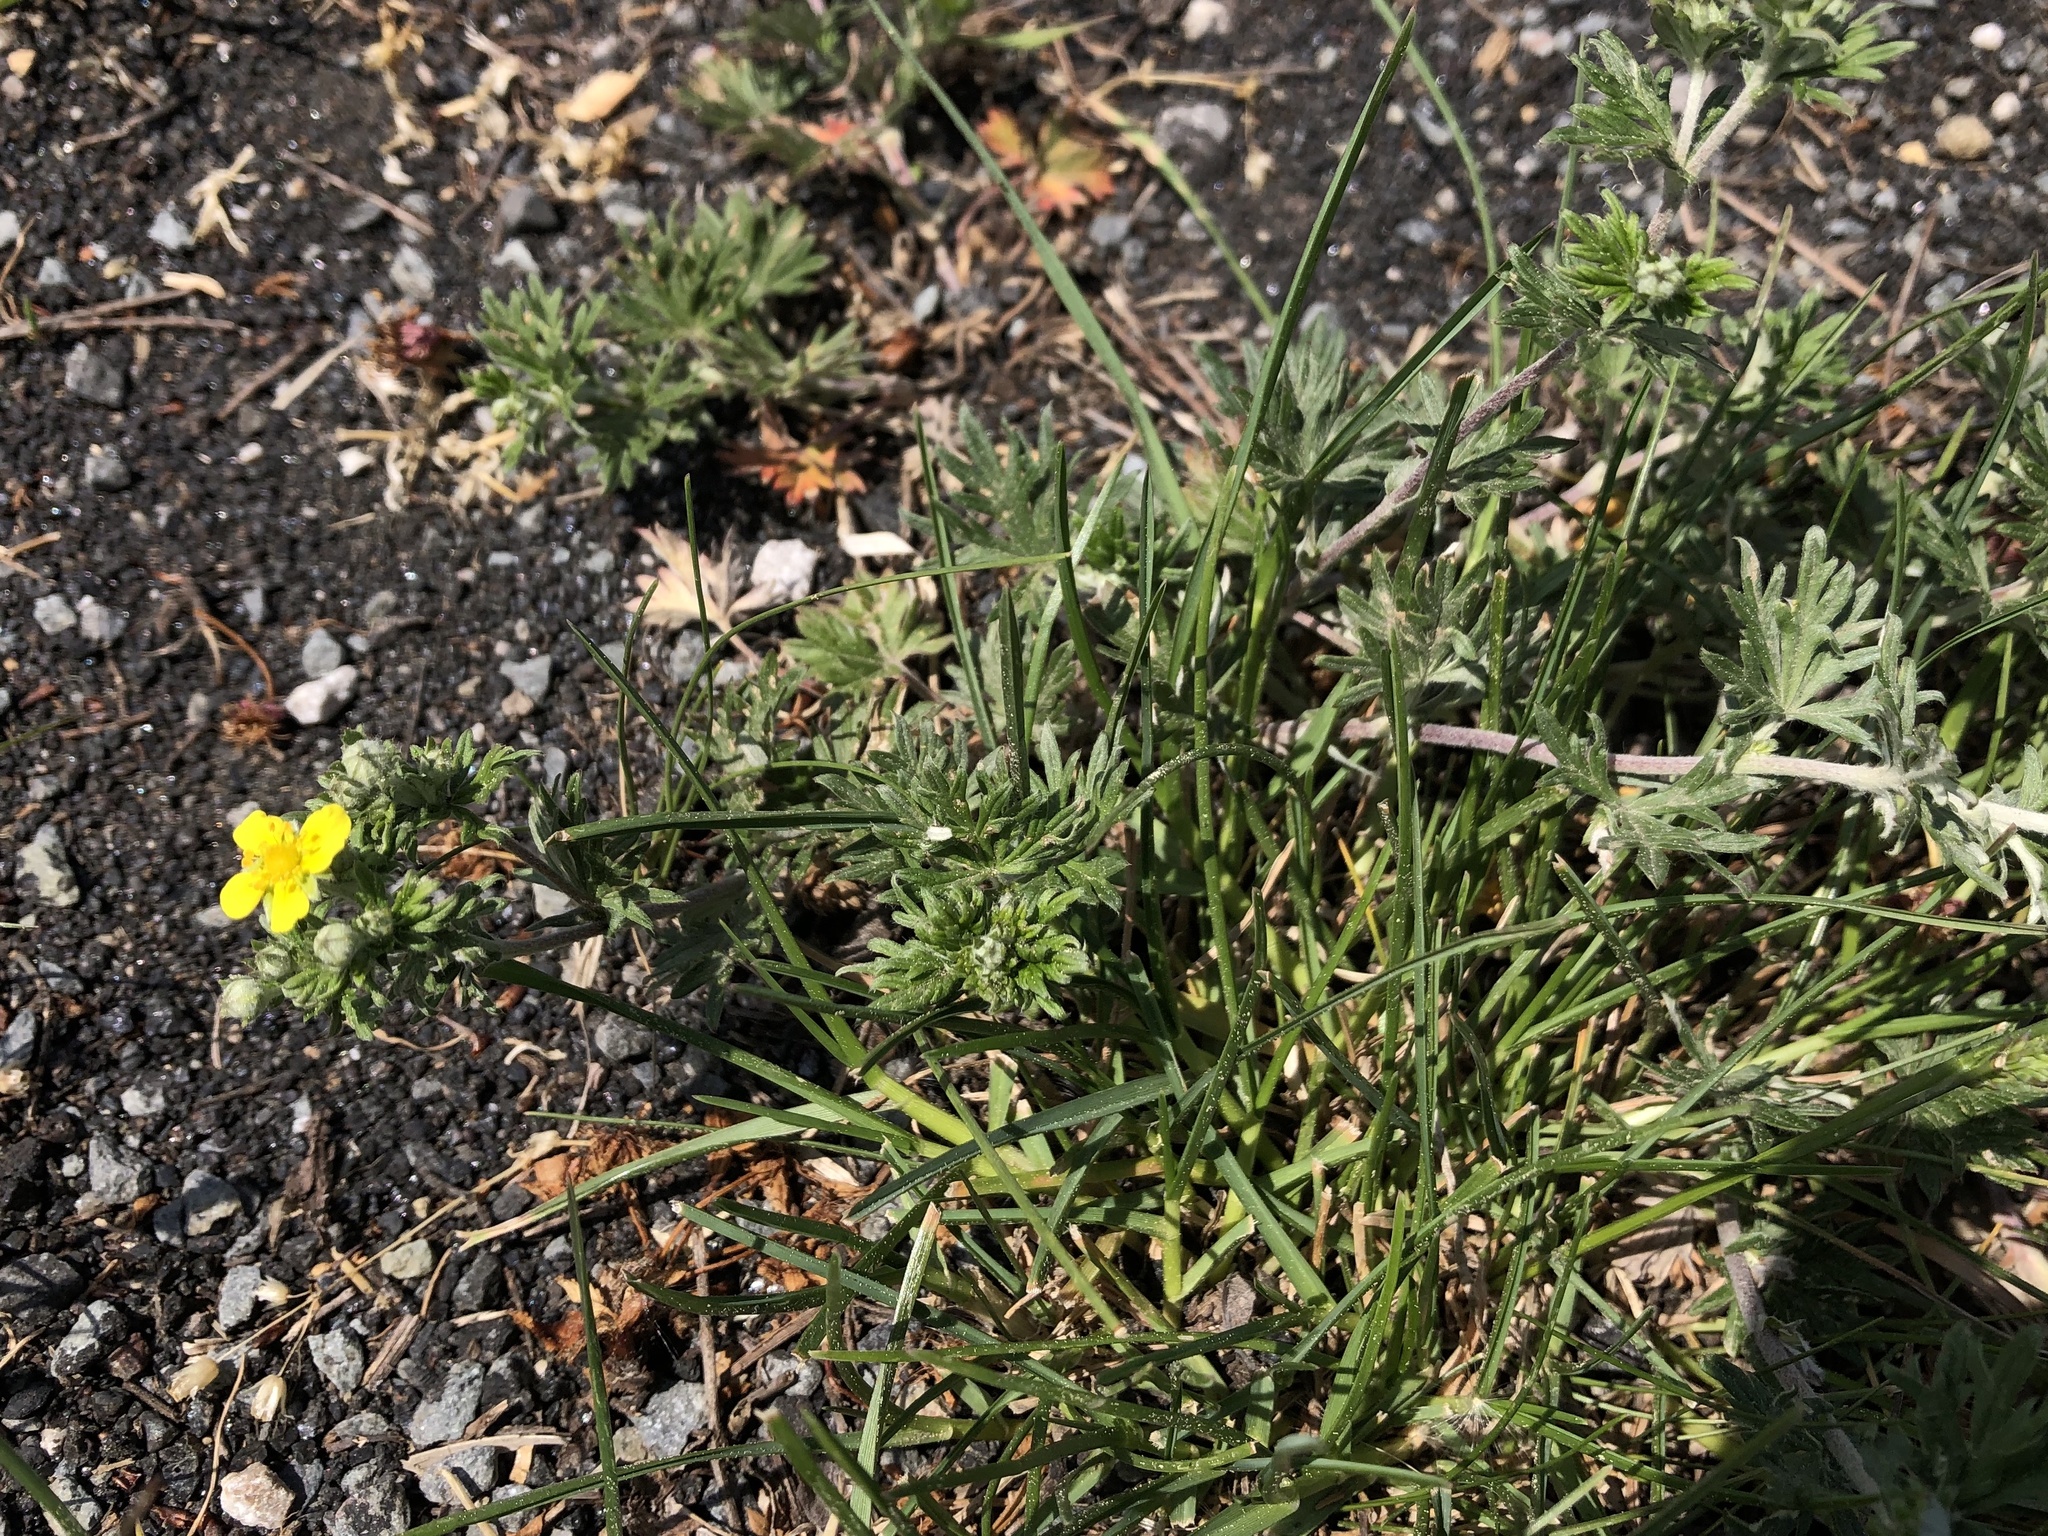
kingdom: Plantae
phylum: Tracheophyta
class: Magnoliopsida
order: Rosales
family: Rosaceae
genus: Potentilla
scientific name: Potentilla argentea
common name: Hoary cinquefoil
